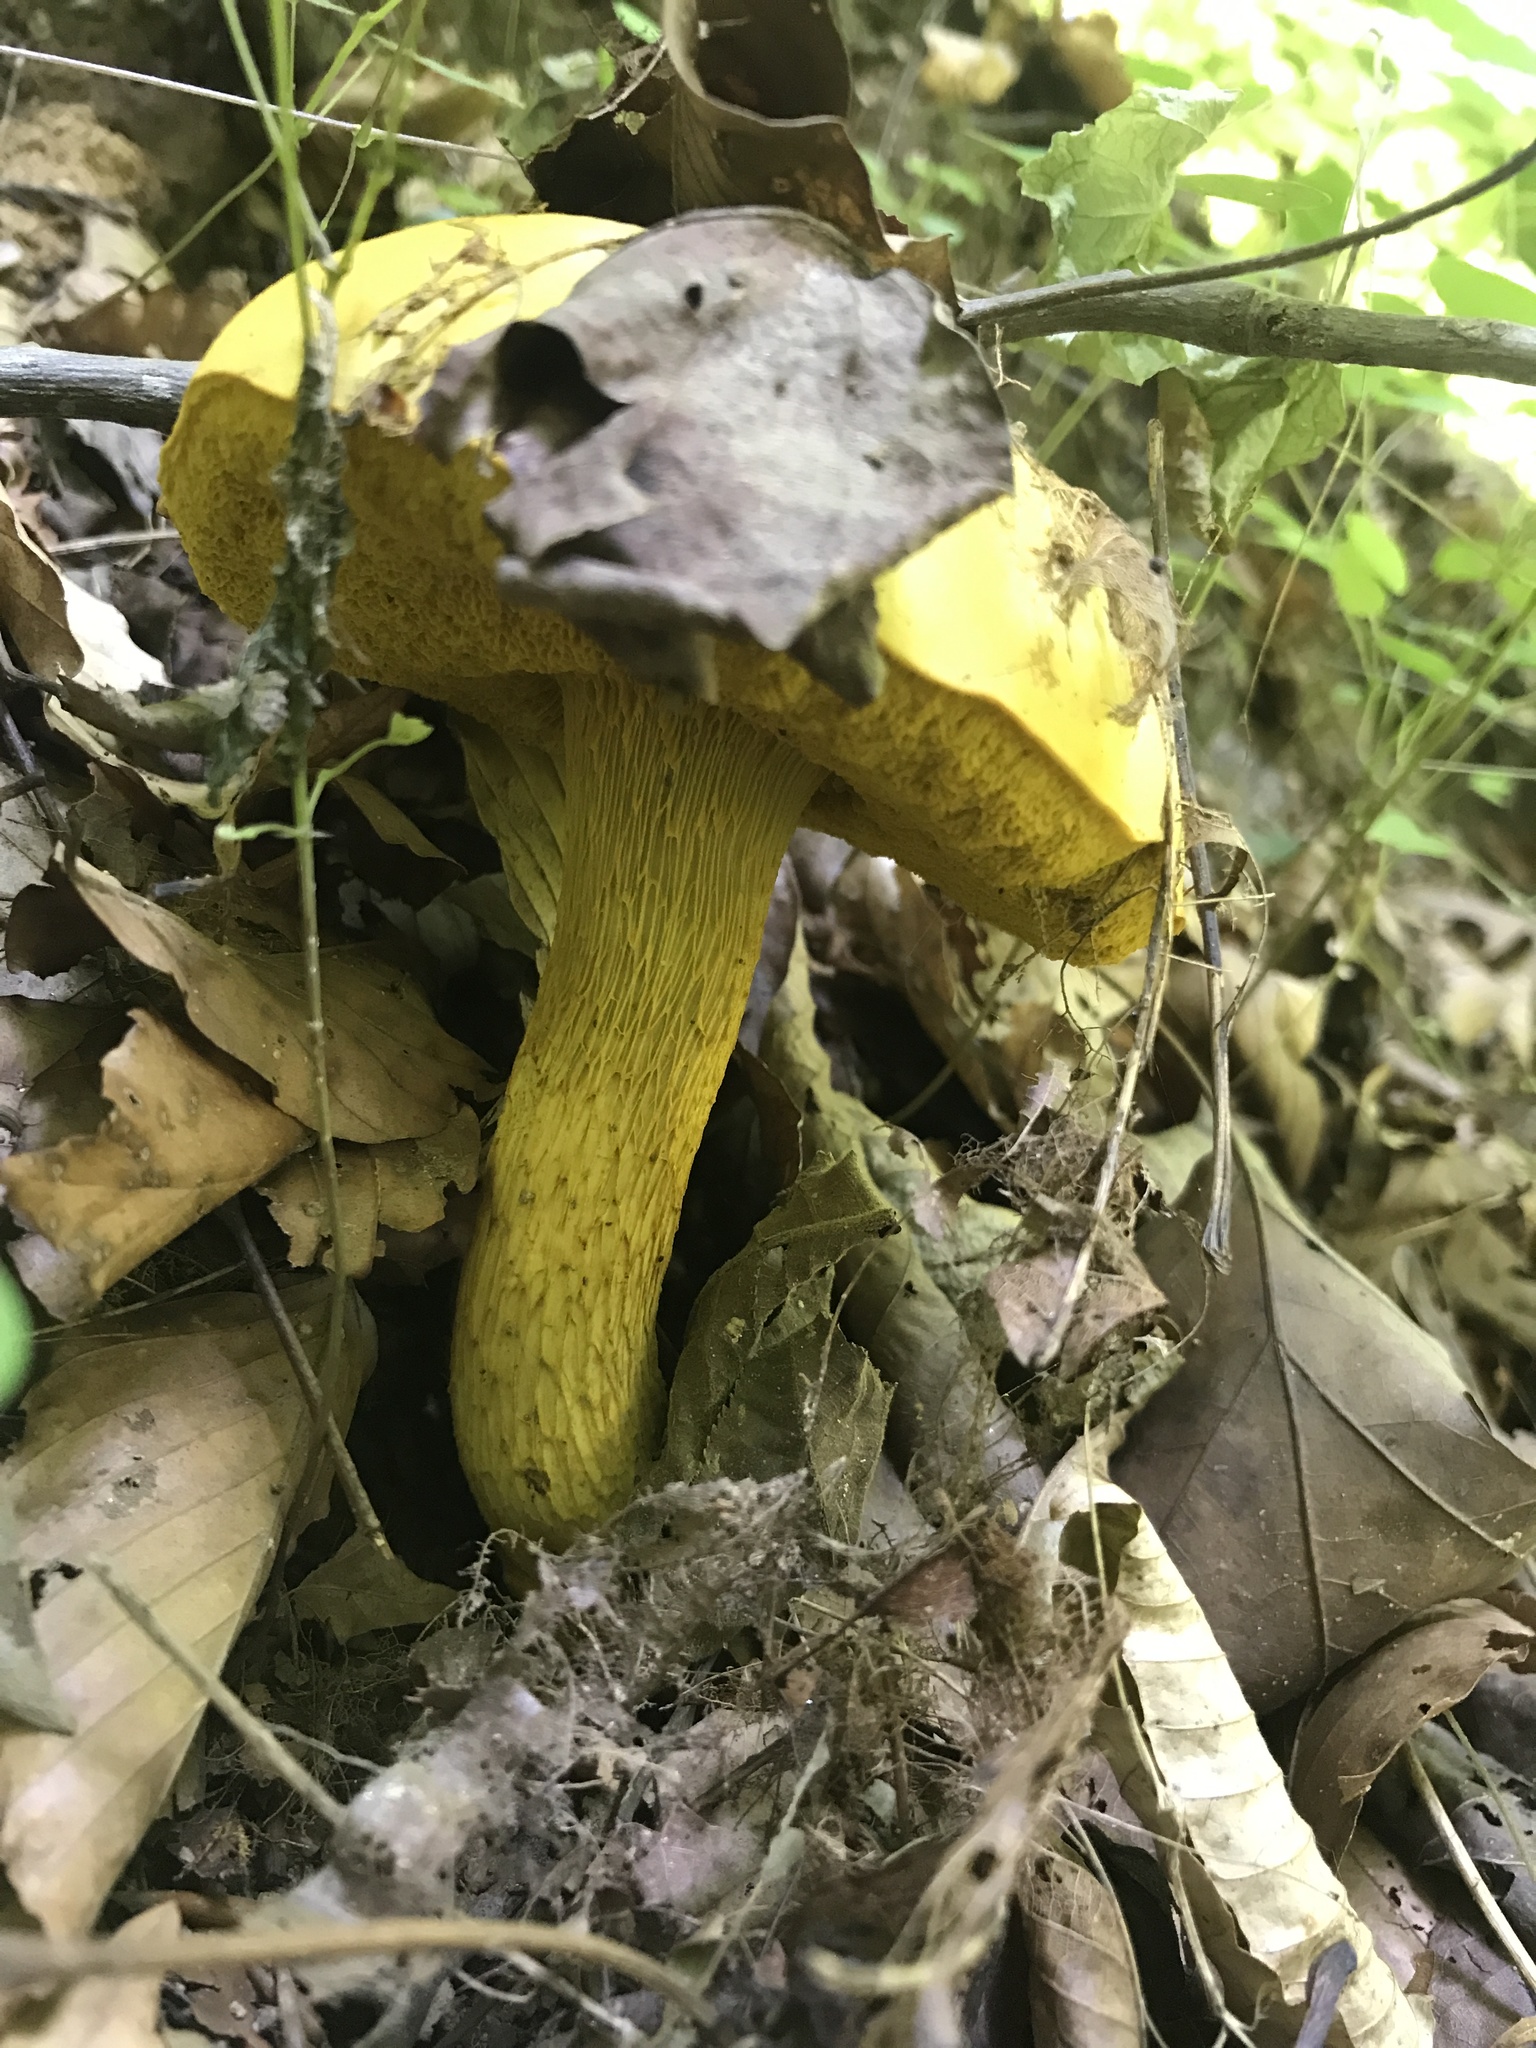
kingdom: Fungi
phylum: Basidiomycota
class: Agaricomycetes
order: Boletales
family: Boletaceae
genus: Retiboletus
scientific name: Retiboletus ornatipes
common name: Ornate-stalked bolete
